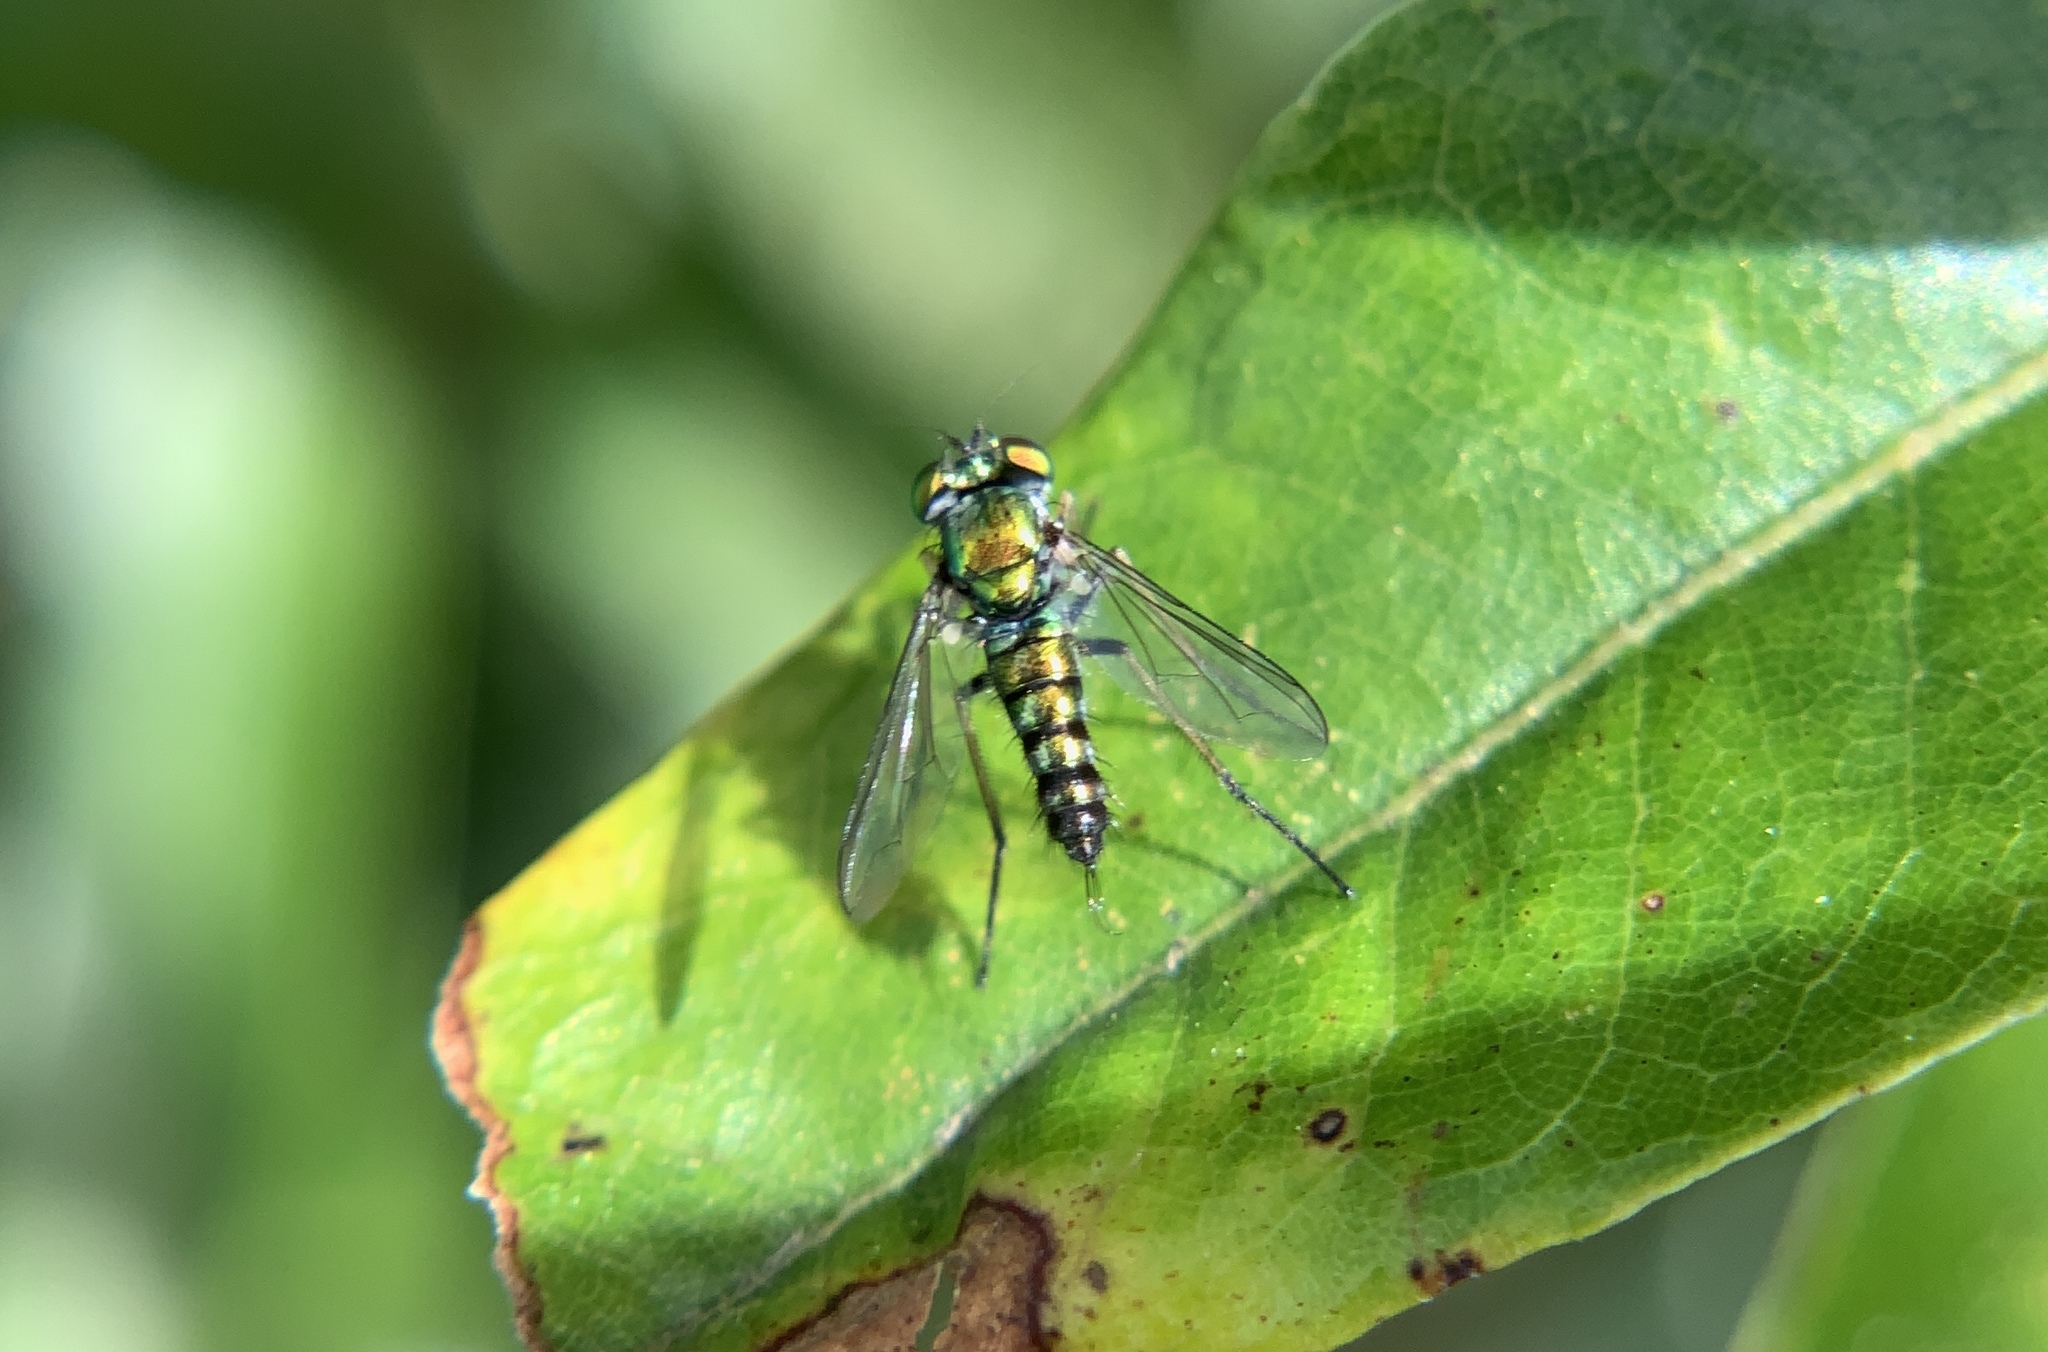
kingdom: Animalia
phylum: Arthropoda
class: Insecta
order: Diptera
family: Dolichopodidae
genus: Condylostylus
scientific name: Condylostylus caudatus
